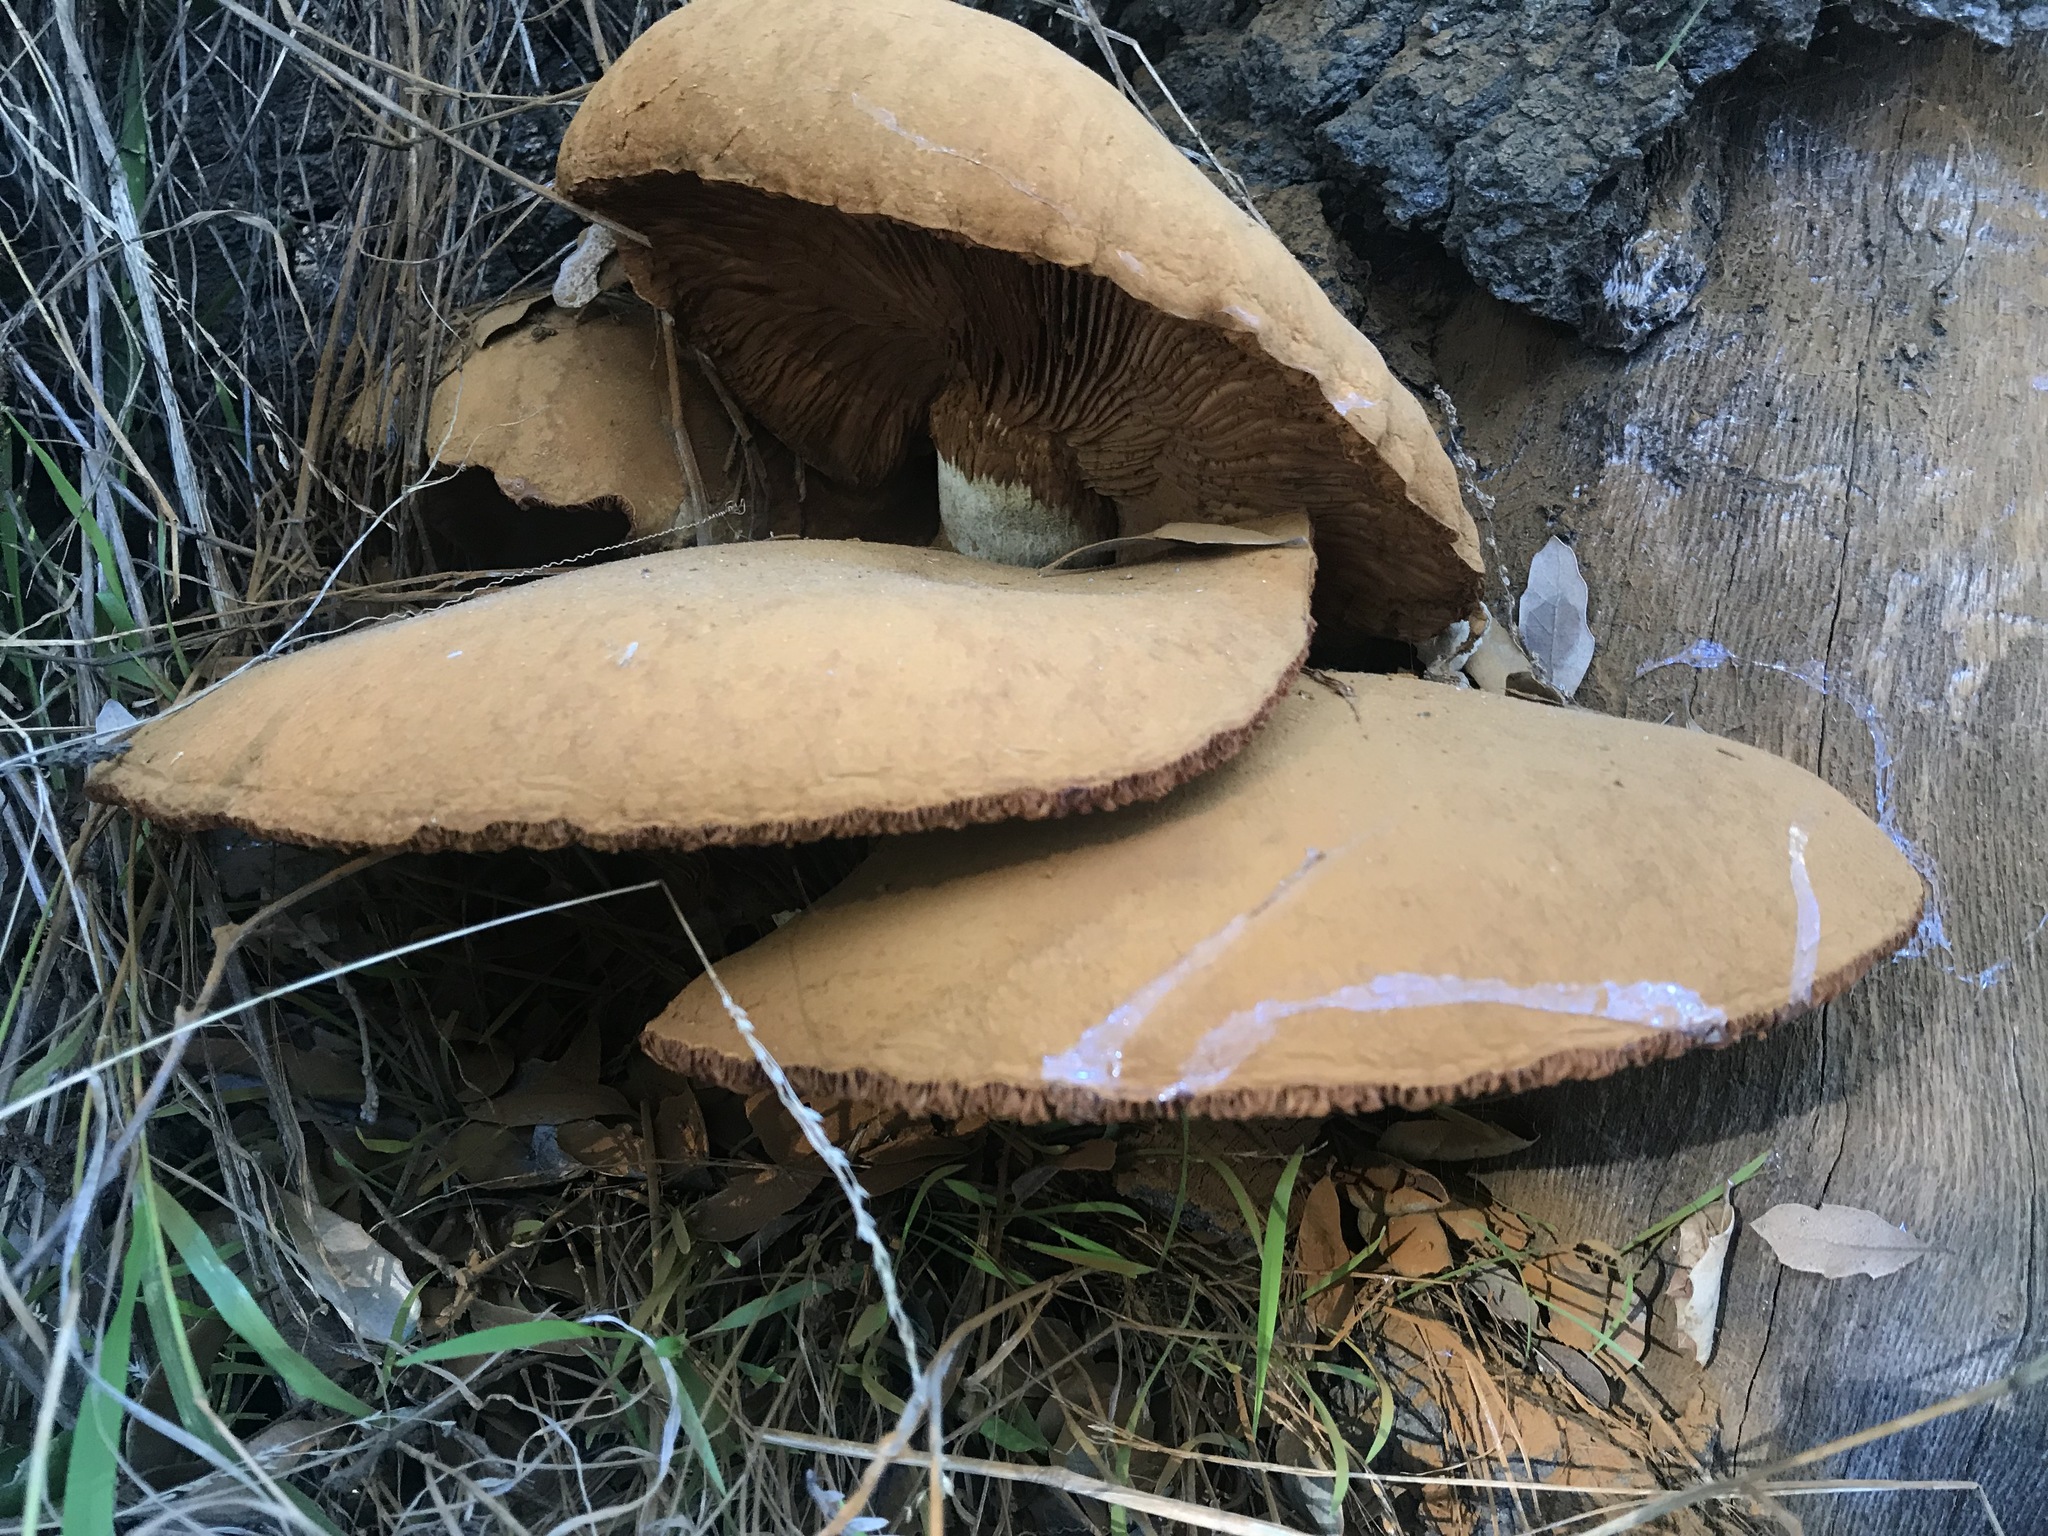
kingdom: Fungi
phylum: Basidiomycota
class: Agaricomycetes
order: Agaricales
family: Hymenogastraceae
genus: Gymnopilus
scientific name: Gymnopilus ventricosus
